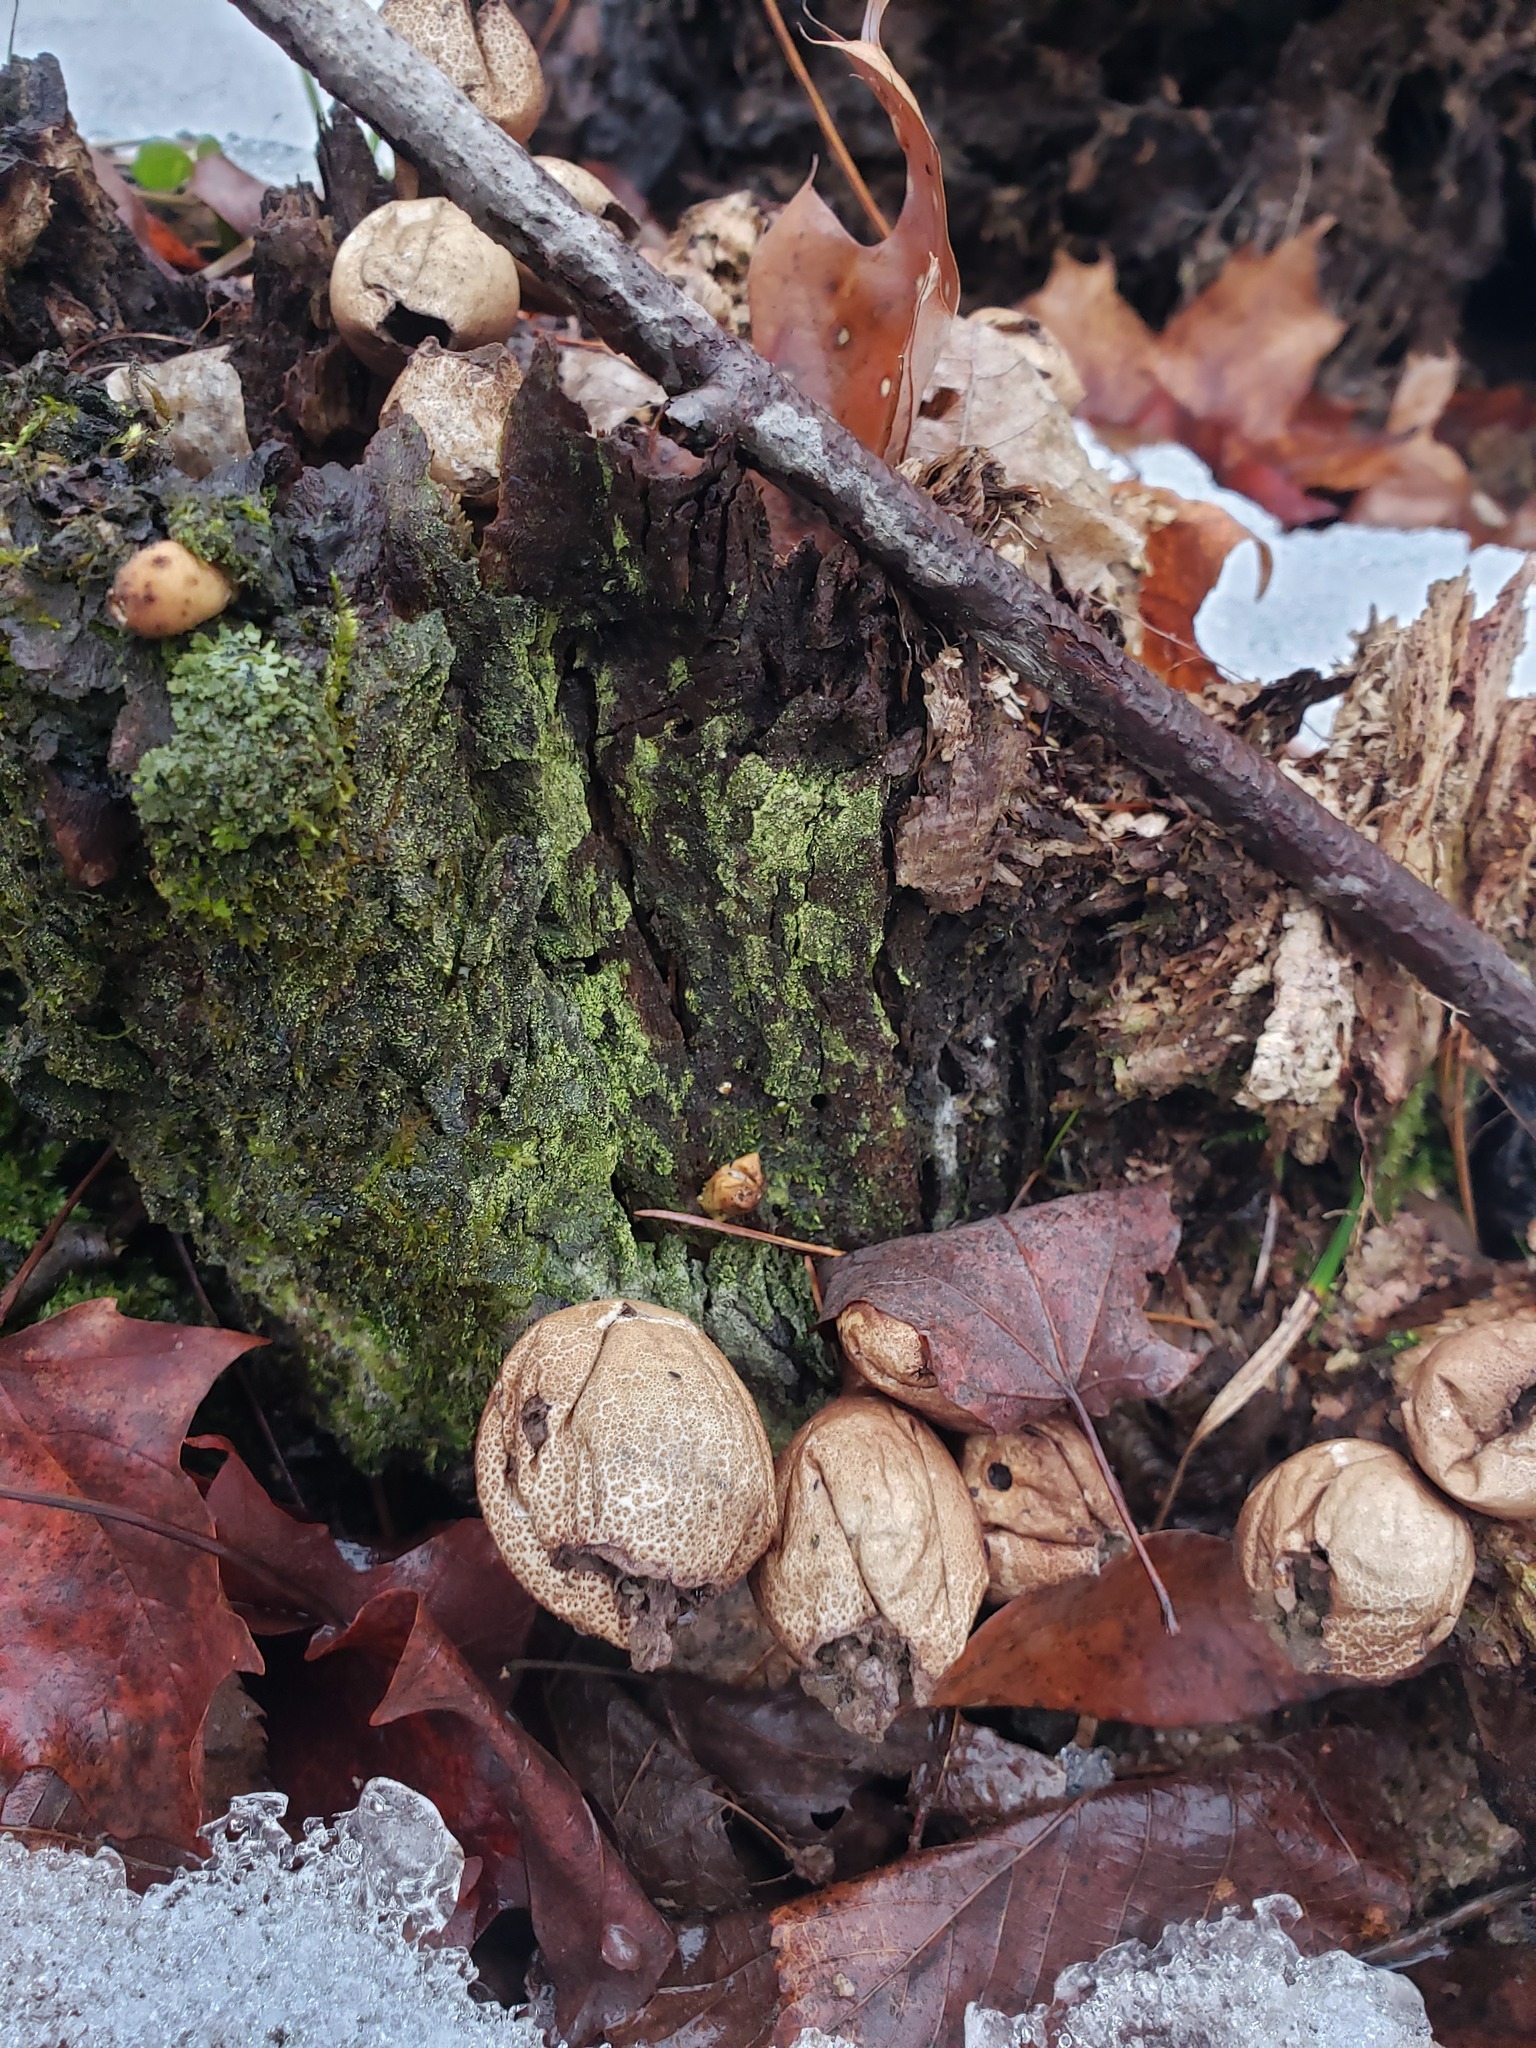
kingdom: Fungi
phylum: Basidiomycota
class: Agaricomycetes
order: Agaricales
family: Lycoperdaceae
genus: Apioperdon
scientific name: Apioperdon pyriforme
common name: Pear-shaped puffball
